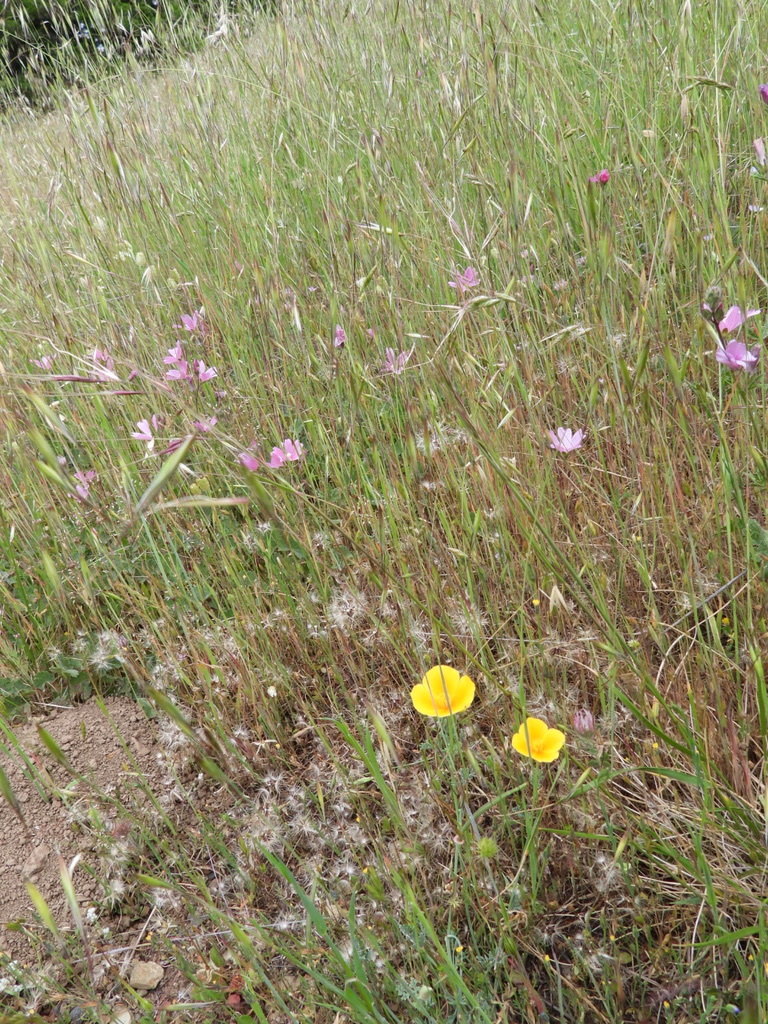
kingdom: Plantae
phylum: Tracheophyta
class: Magnoliopsida
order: Ranunculales
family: Papaveraceae
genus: Eschscholzia
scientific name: Eschscholzia californica
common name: California poppy
